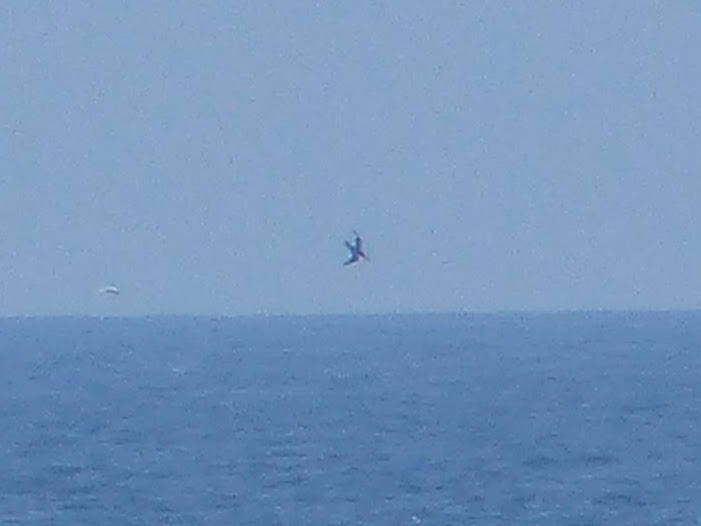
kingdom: Animalia
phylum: Chordata
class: Aves
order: Suliformes
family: Sulidae
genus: Morus
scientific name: Morus bassanus
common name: Northern gannet
